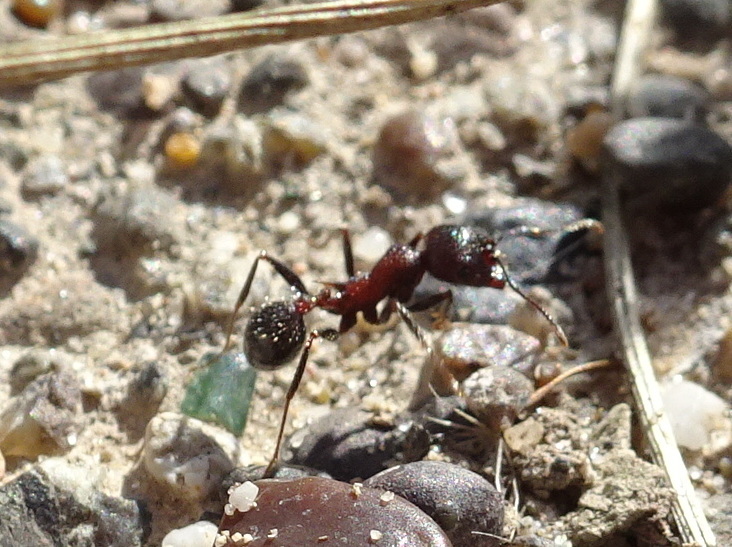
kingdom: Animalia
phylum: Arthropoda
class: Insecta
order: Hymenoptera
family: Formicidae
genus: Veromessor
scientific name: Veromessor andrei
